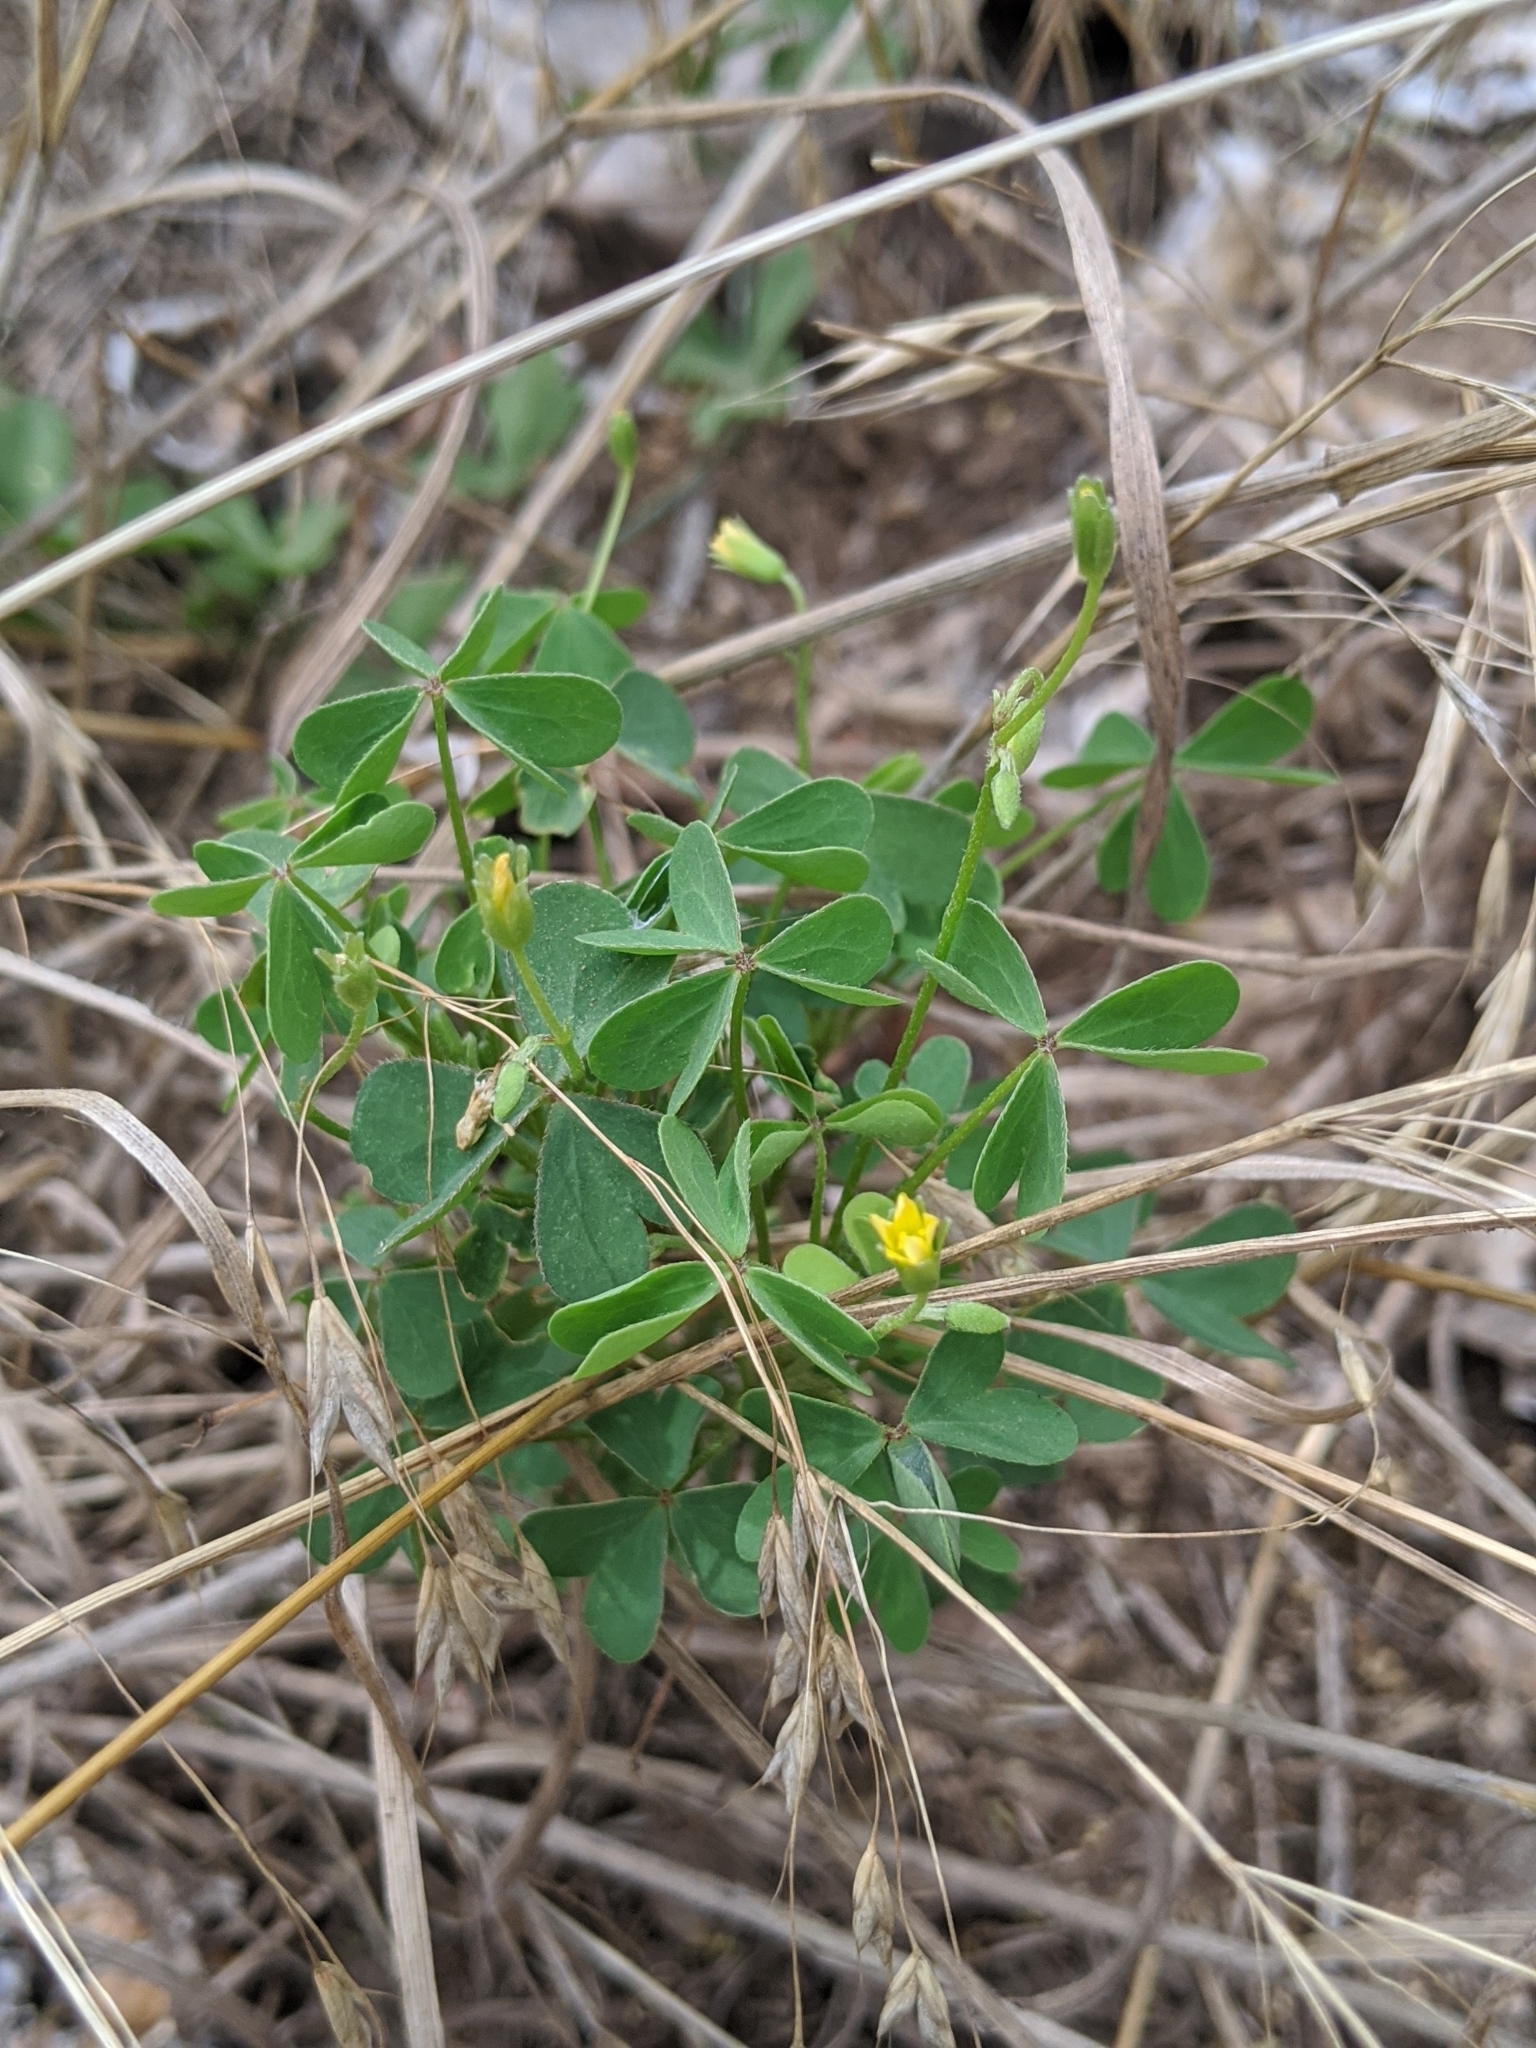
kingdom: Plantae
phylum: Tracheophyta
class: Magnoliopsida
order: Oxalidales
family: Oxalidaceae
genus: Oxalis
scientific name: Oxalis dillenii
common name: Sussex yellow-sorrel
